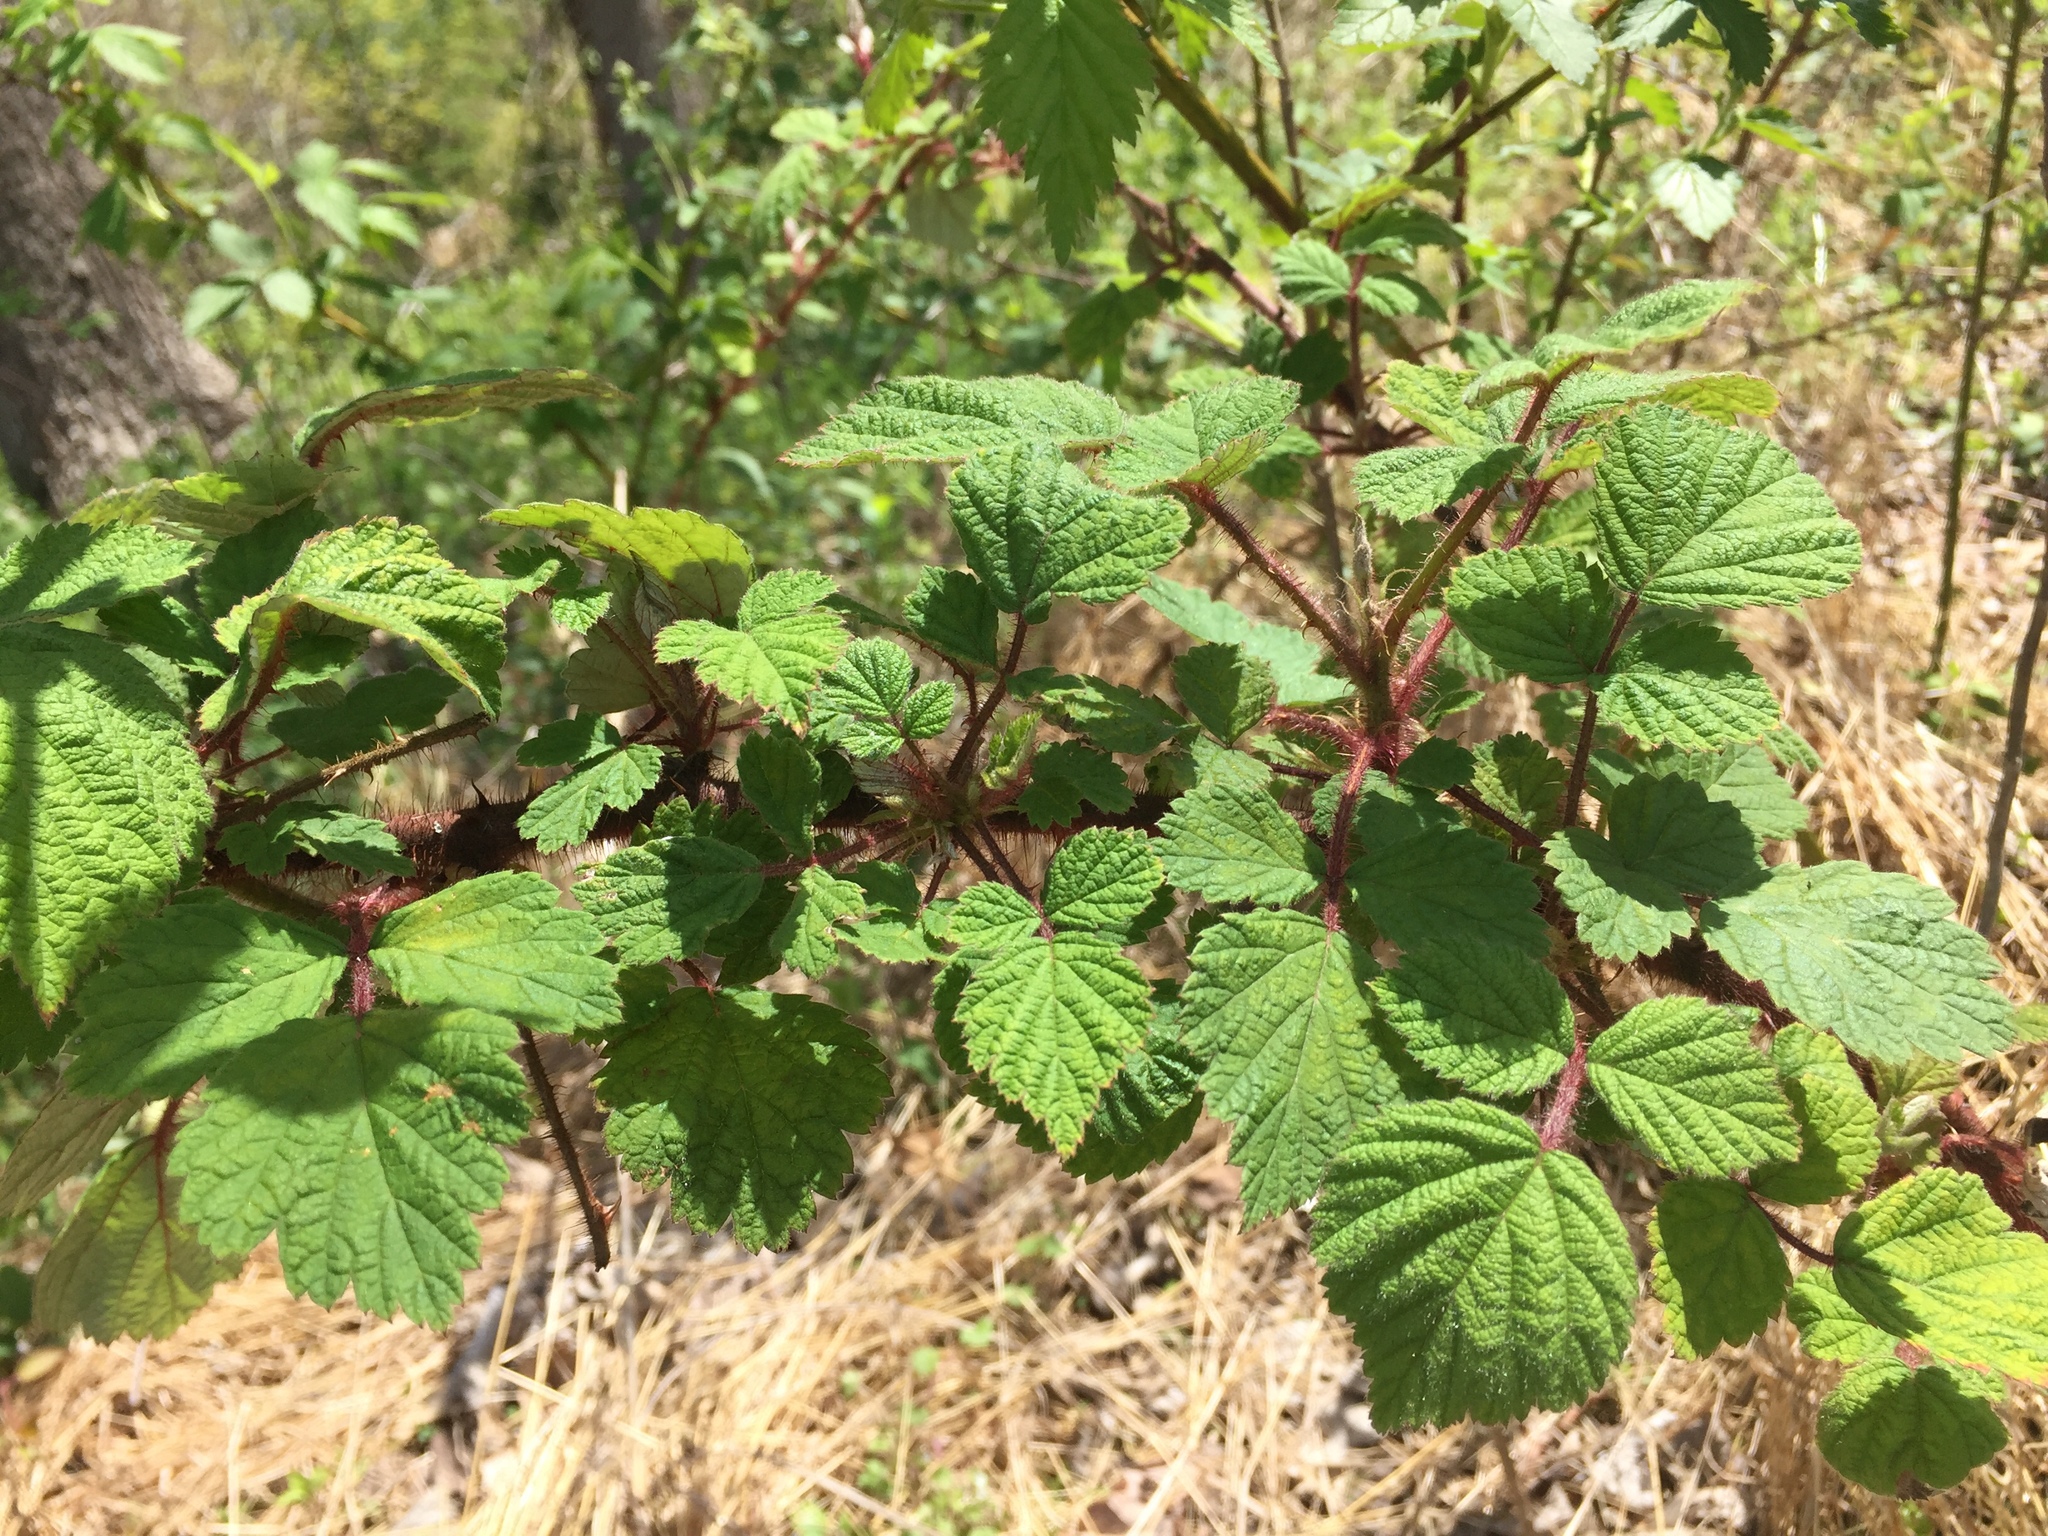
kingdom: Plantae
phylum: Tracheophyta
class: Magnoliopsida
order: Rosales
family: Rosaceae
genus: Rubus
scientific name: Rubus phoenicolasius
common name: Japanese wineberry
